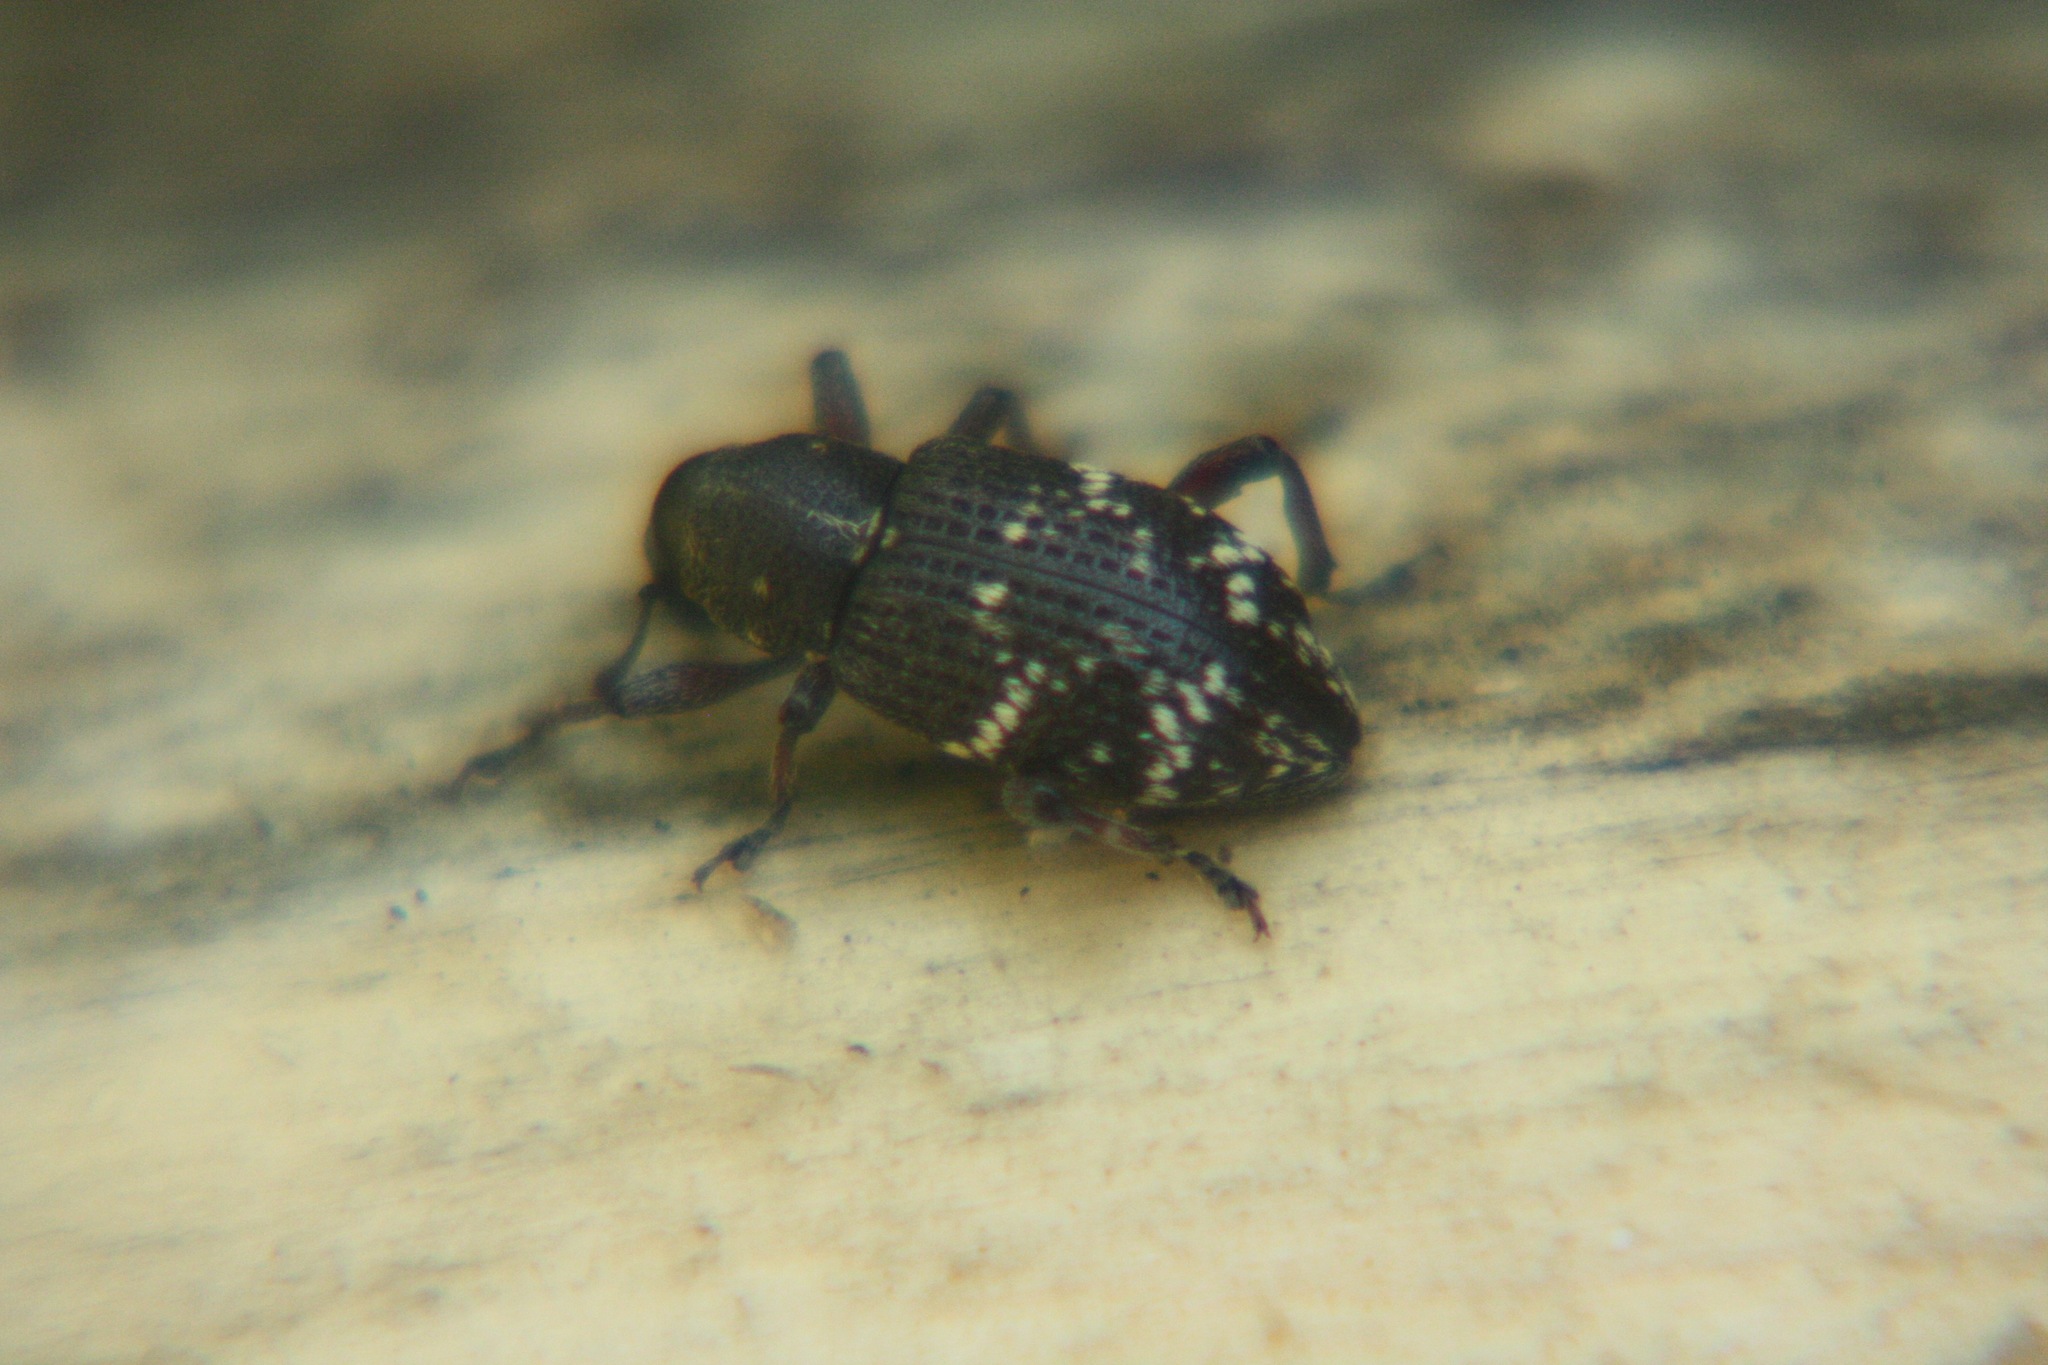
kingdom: Animalia
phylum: Arthropoda
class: Insecta
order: Coleoptera
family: Curculionidae
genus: Hylobius
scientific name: Hylobius pinastri
